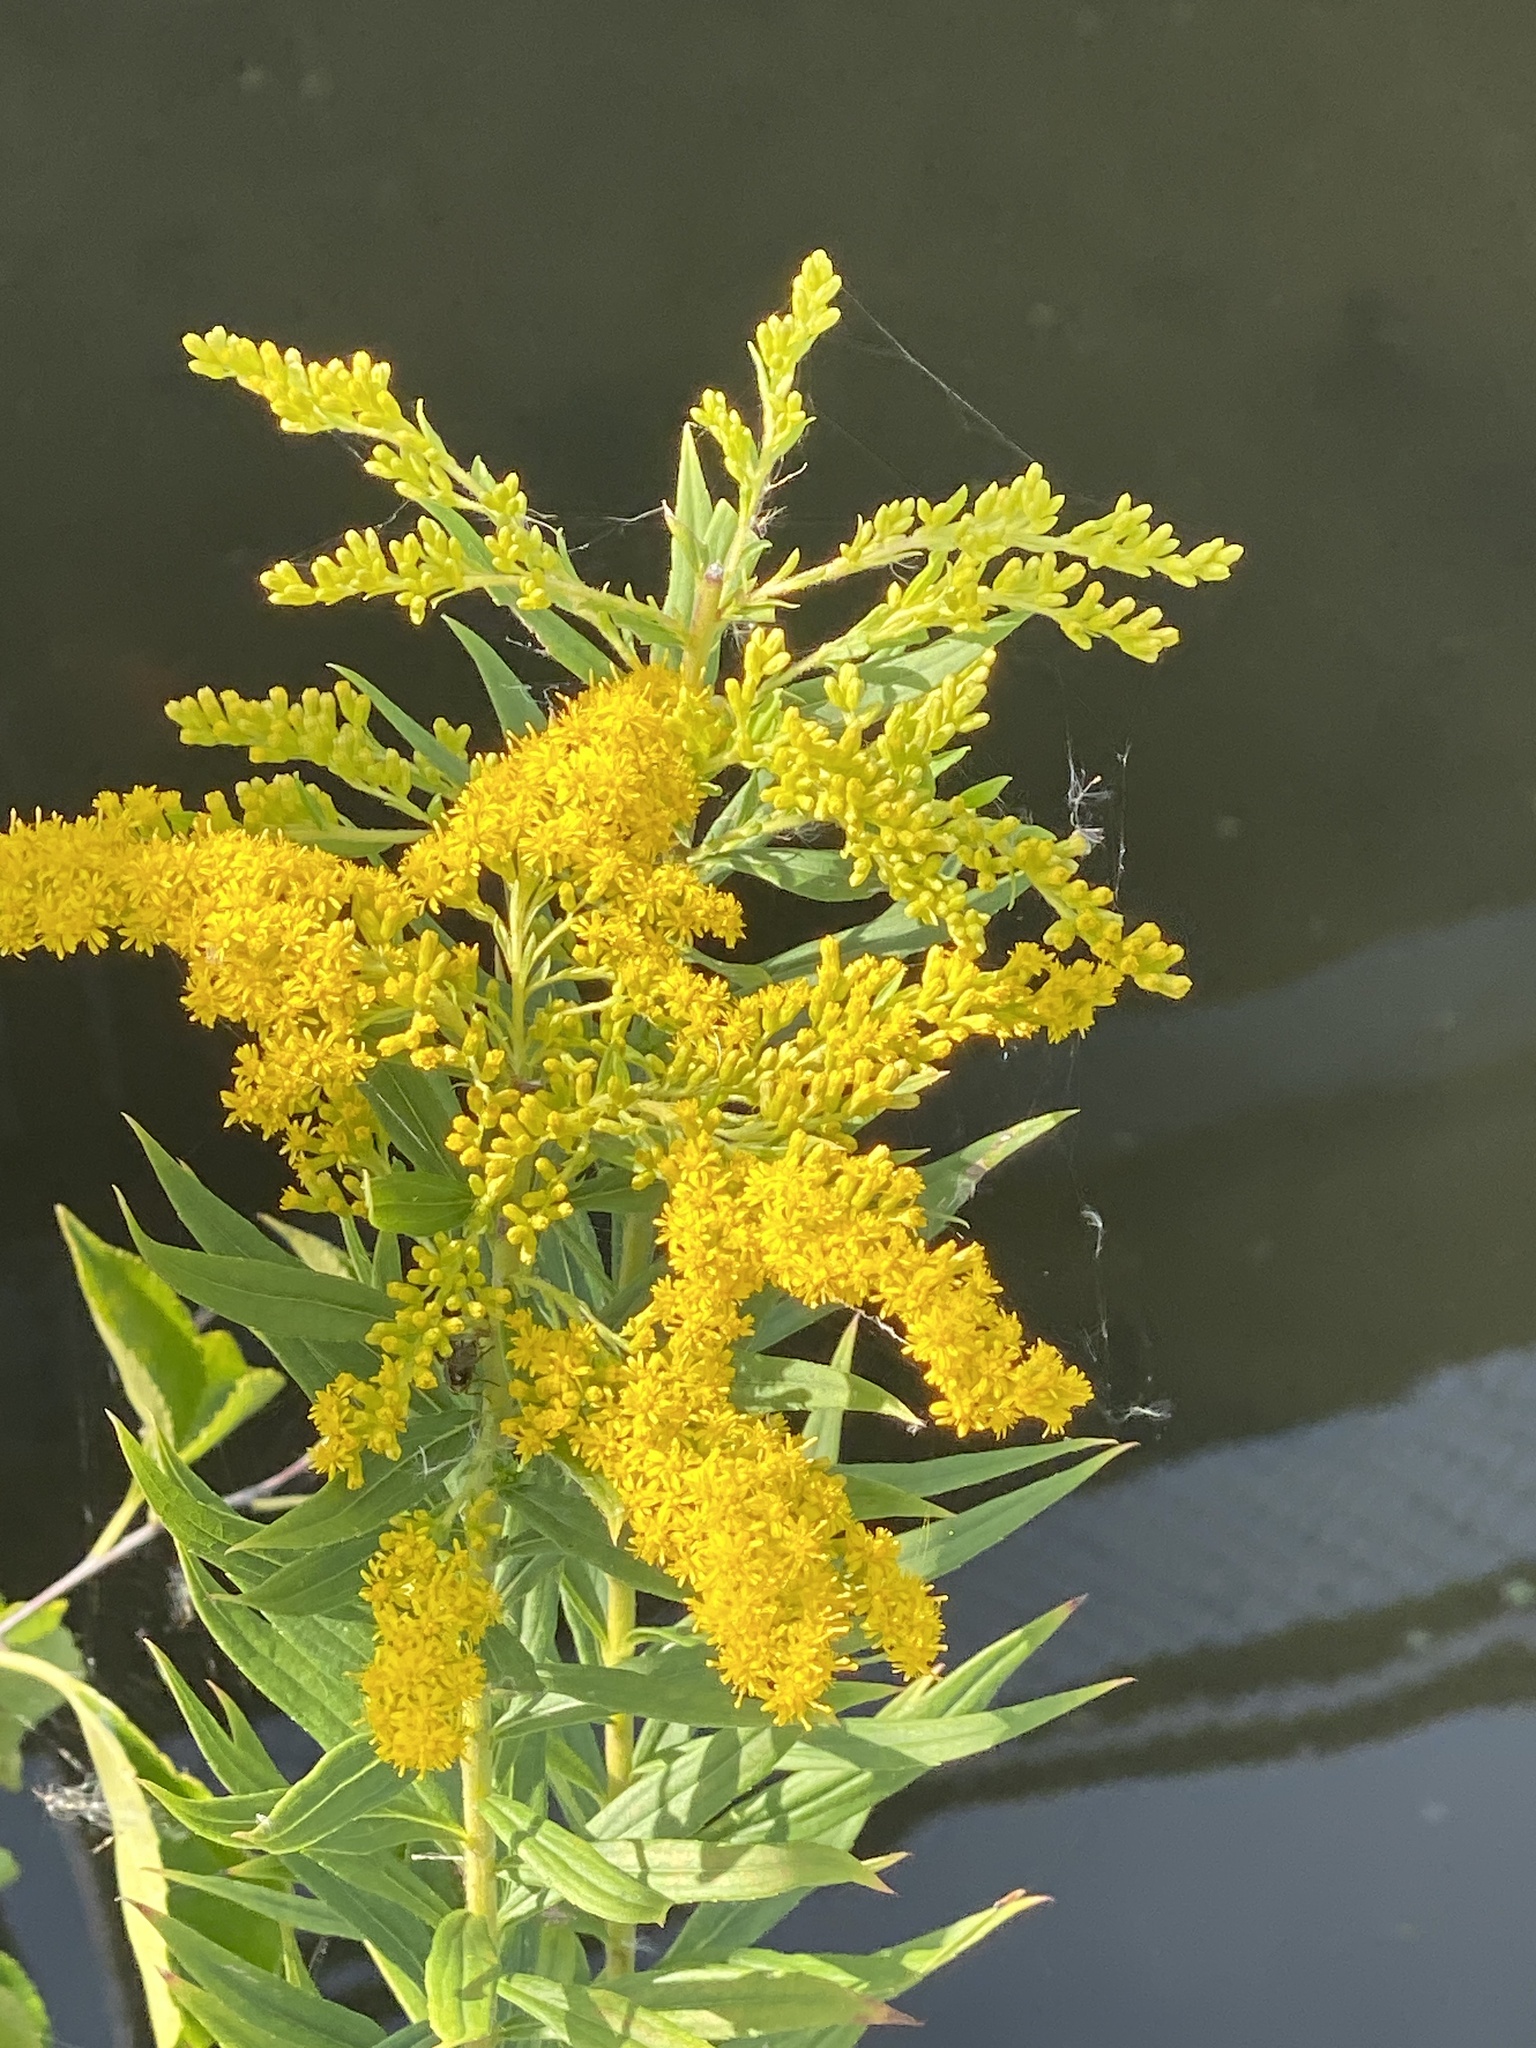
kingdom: Plantae
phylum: Tracheophyta
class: Magnoliopsida
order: Asterales
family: Asteraceae
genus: Solidago
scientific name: Solidago altissima
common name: Late goldenrod
